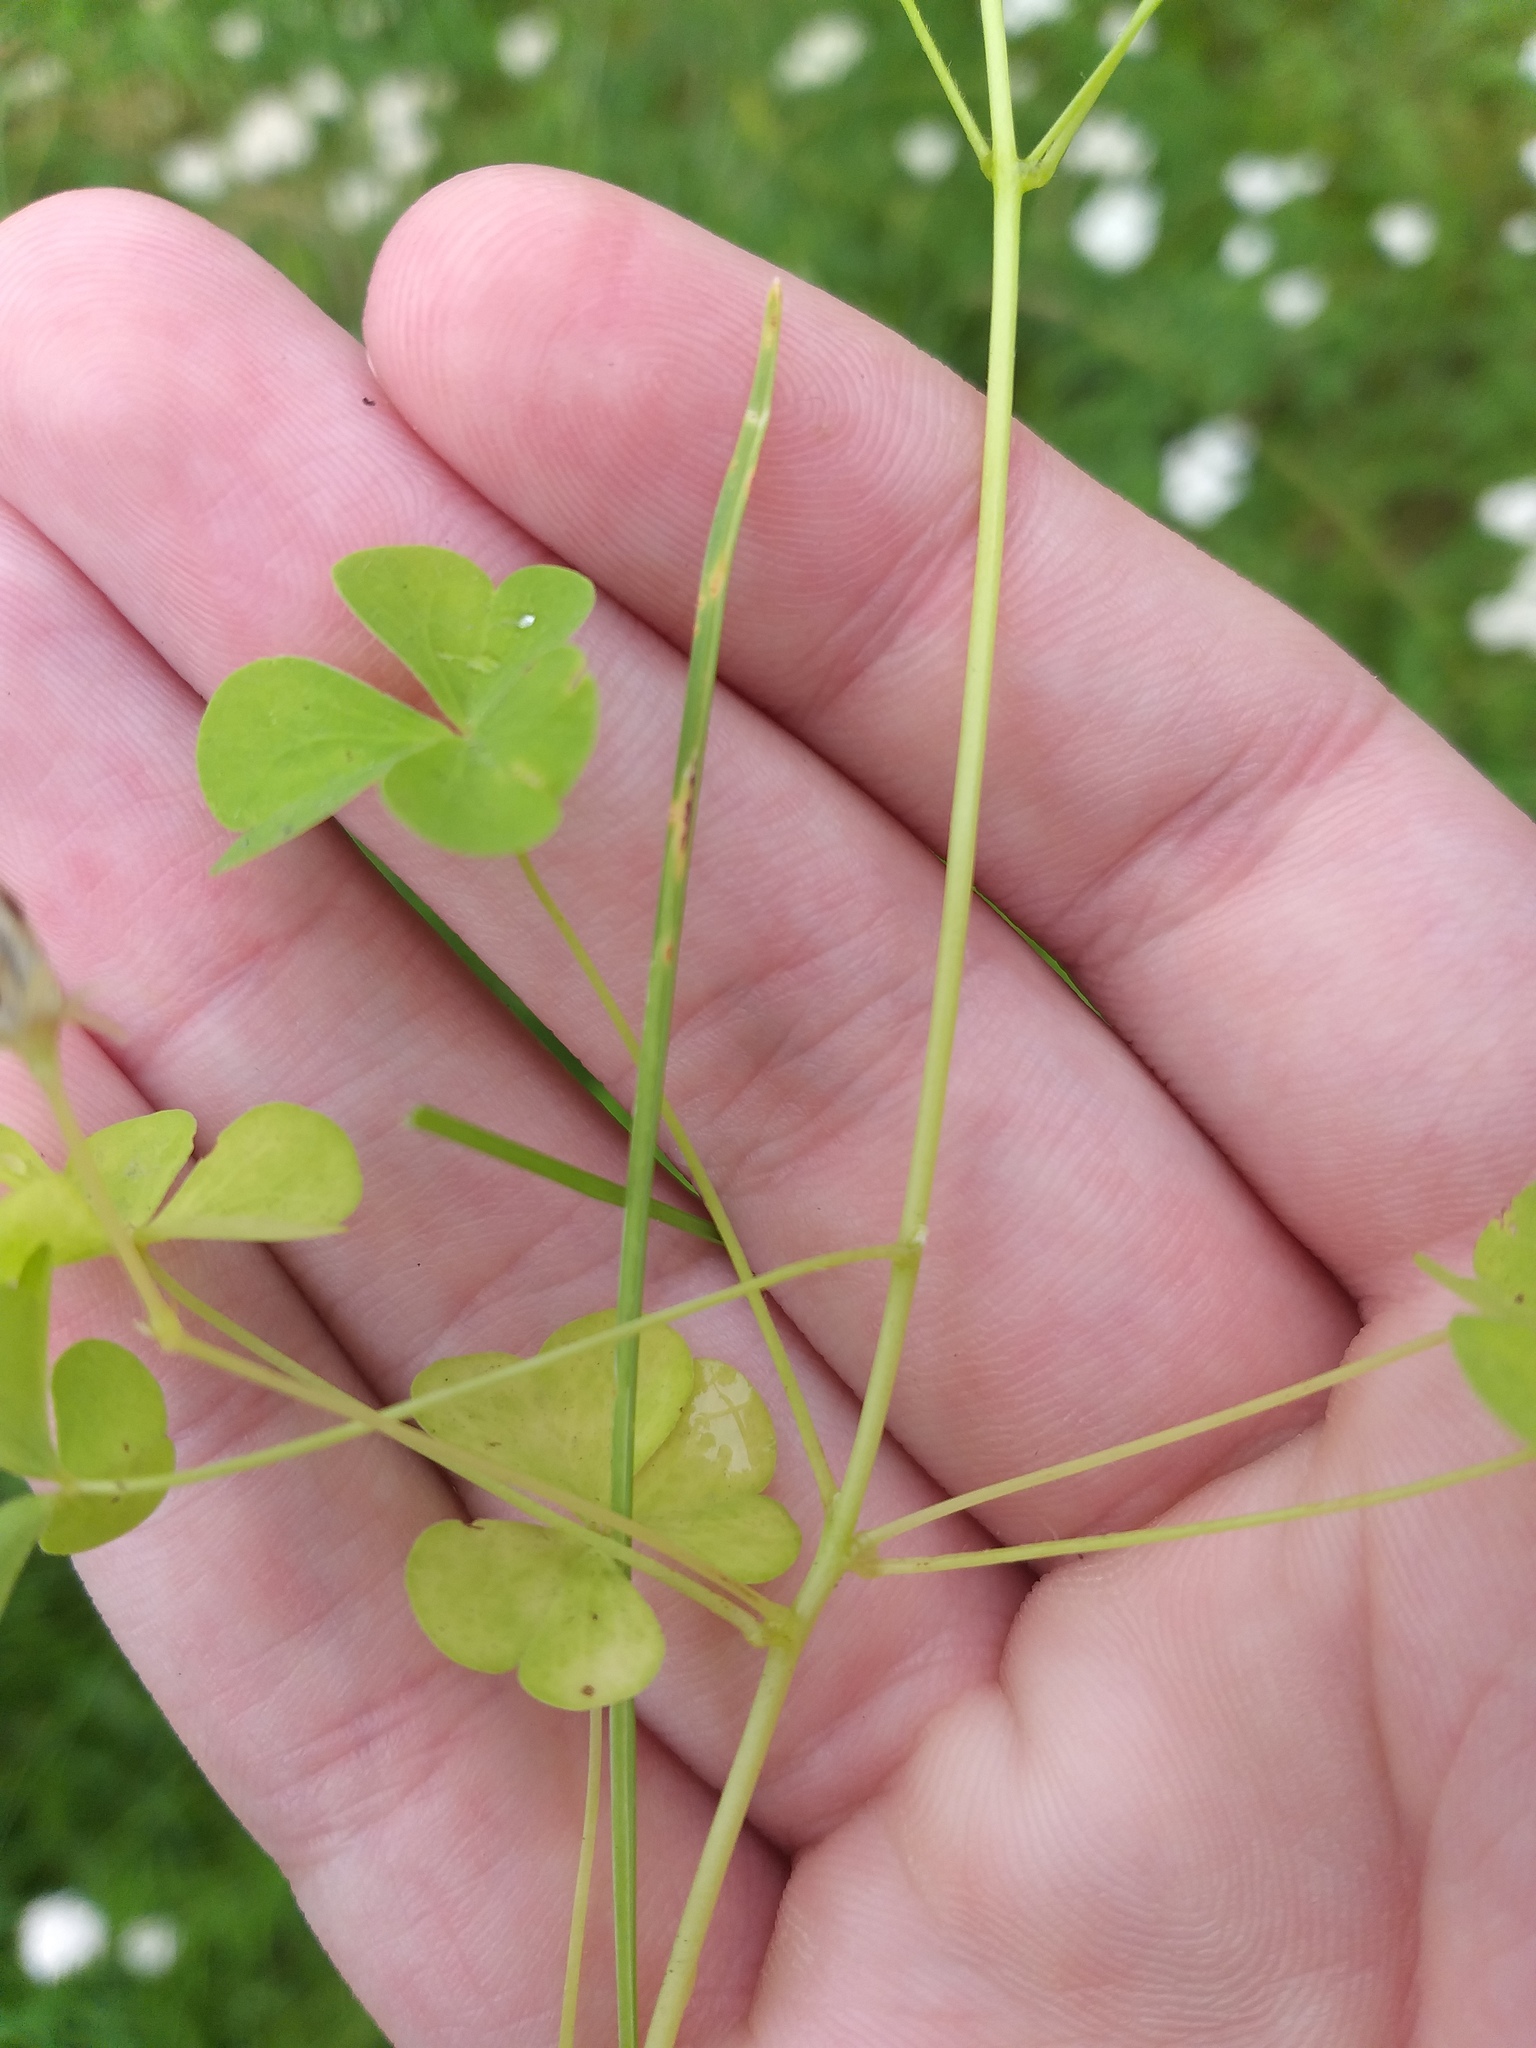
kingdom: Plantae
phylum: Tracheophyta
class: Magnoliopsida
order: Oxalidales
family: Oxalidaceae
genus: Oxalis
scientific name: Oxalis stricta
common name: Upright yellow-sorrel
